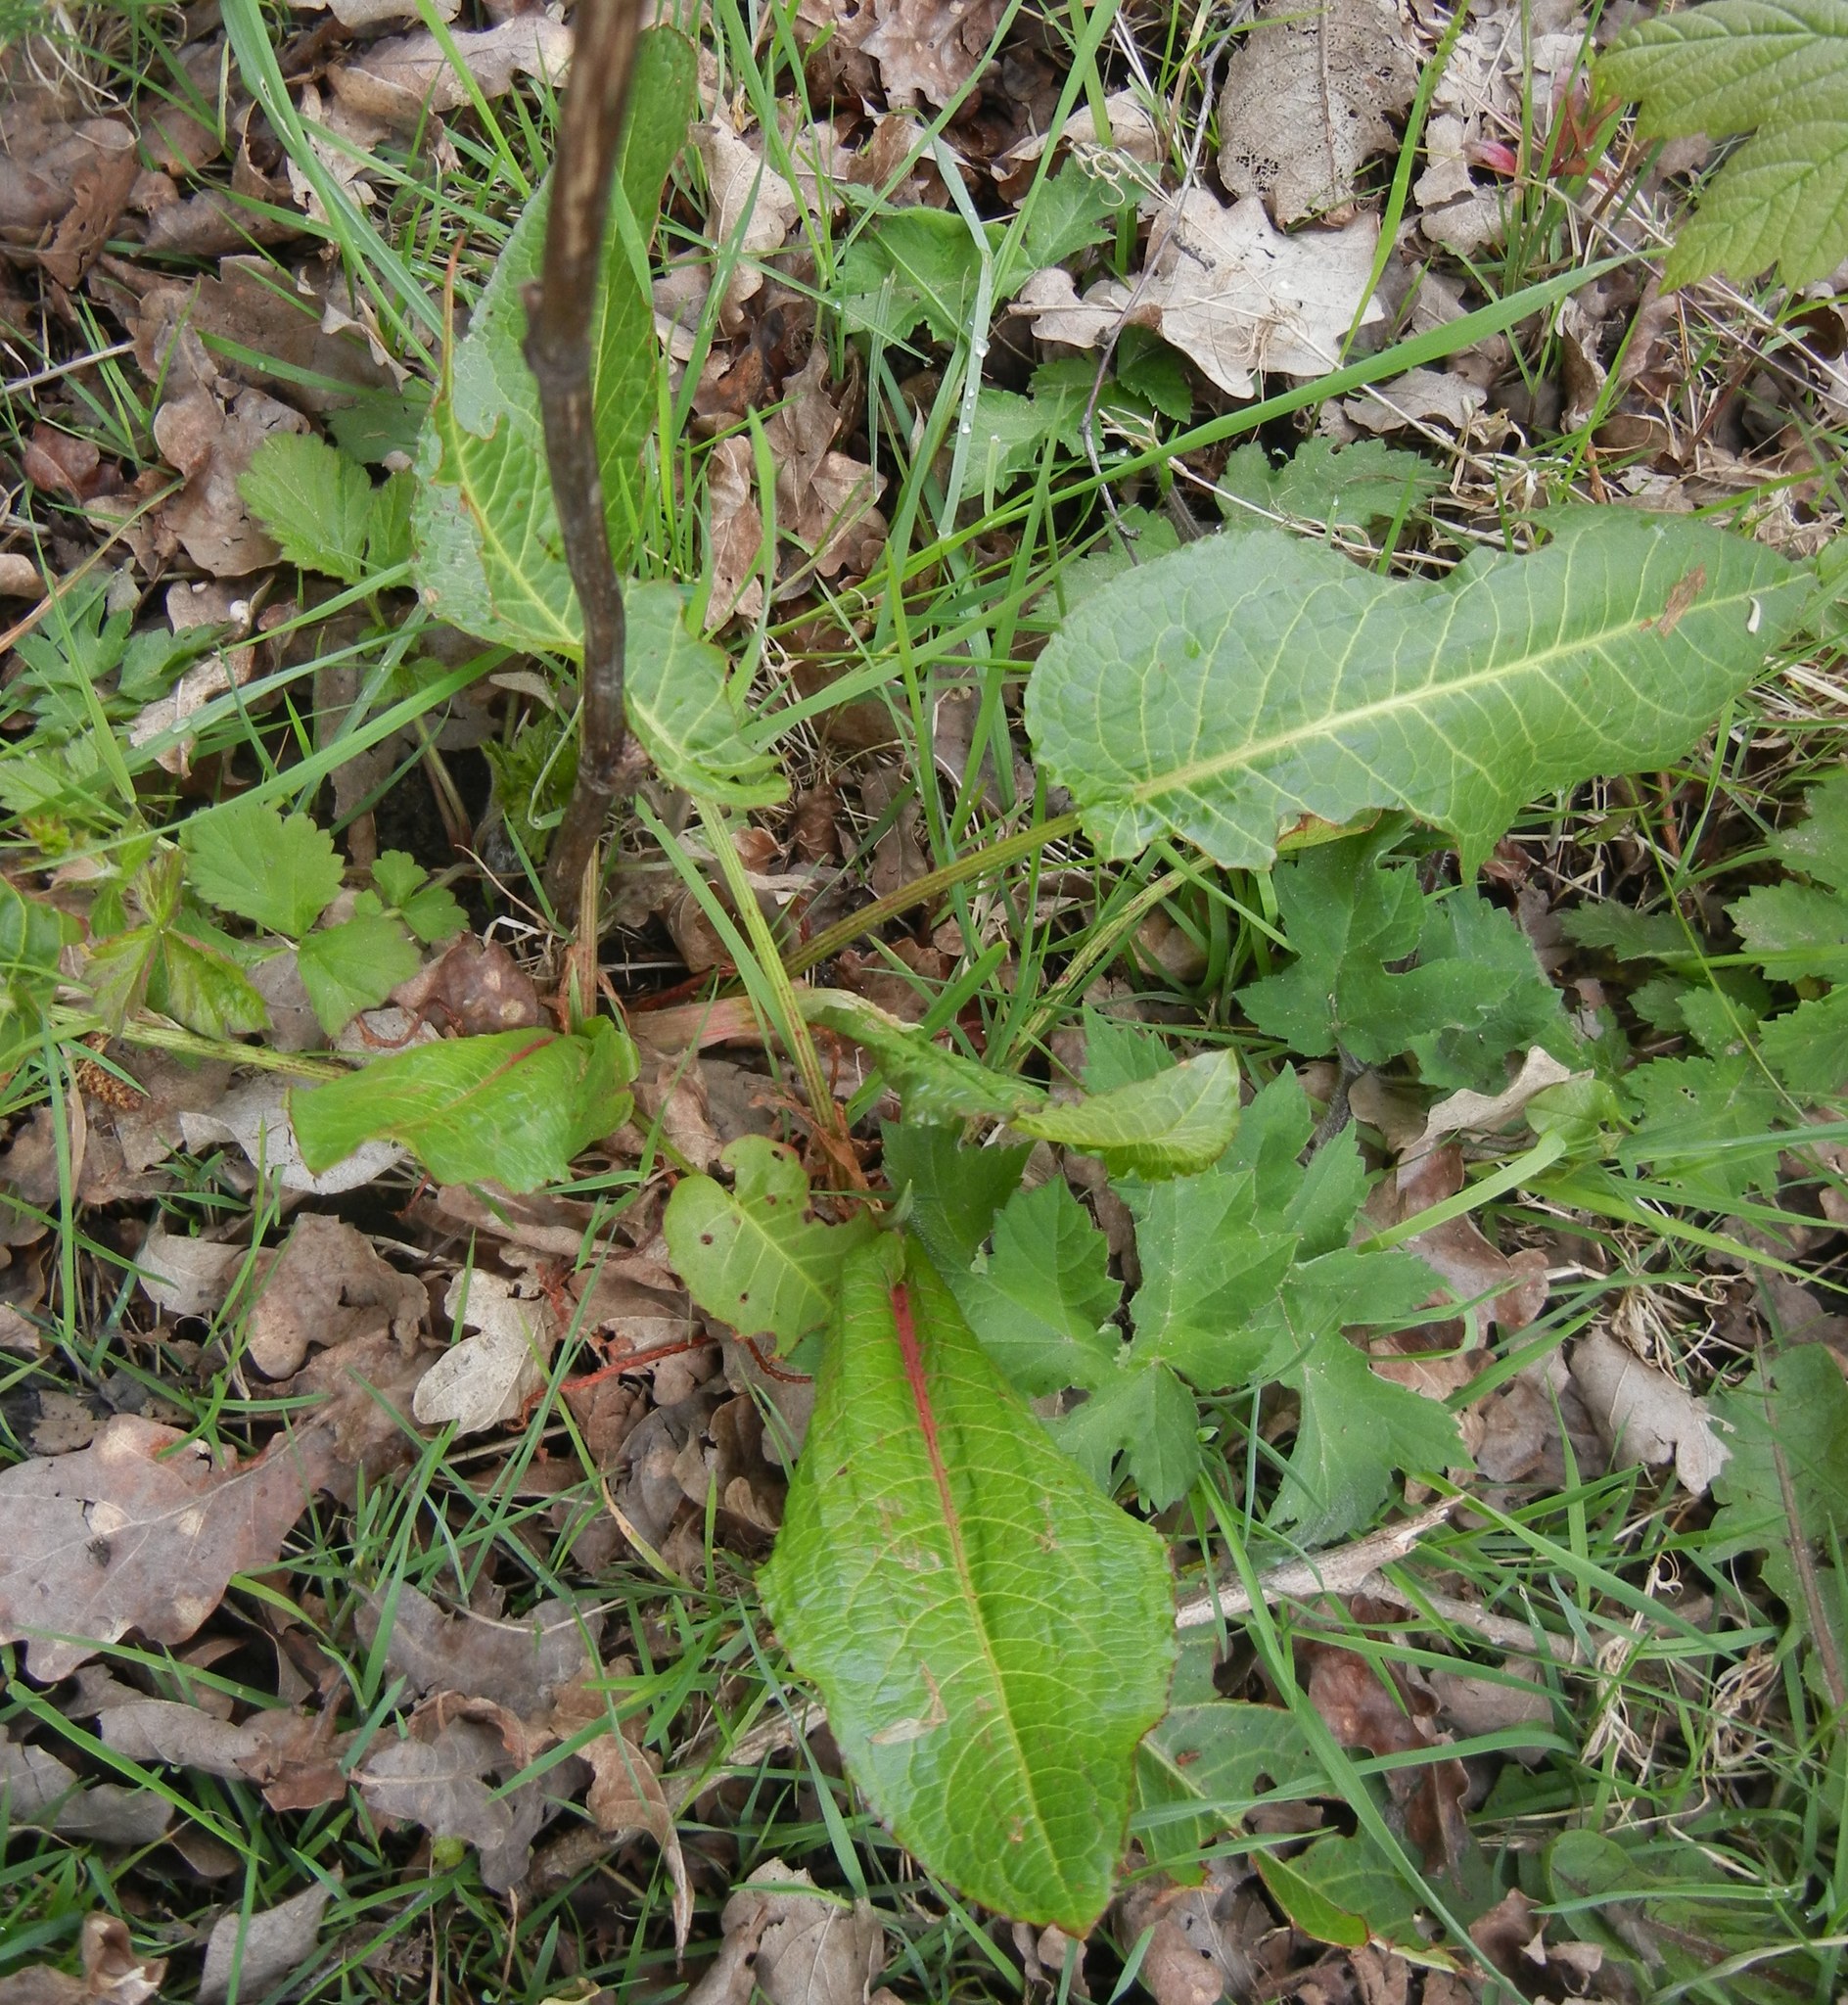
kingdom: Plantae
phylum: Tracheophyta
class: Magnoliopsida
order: Caryophyllales
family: Polygonaceae
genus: Rumex
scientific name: Rumex obtusifolius
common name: Bitter dock
